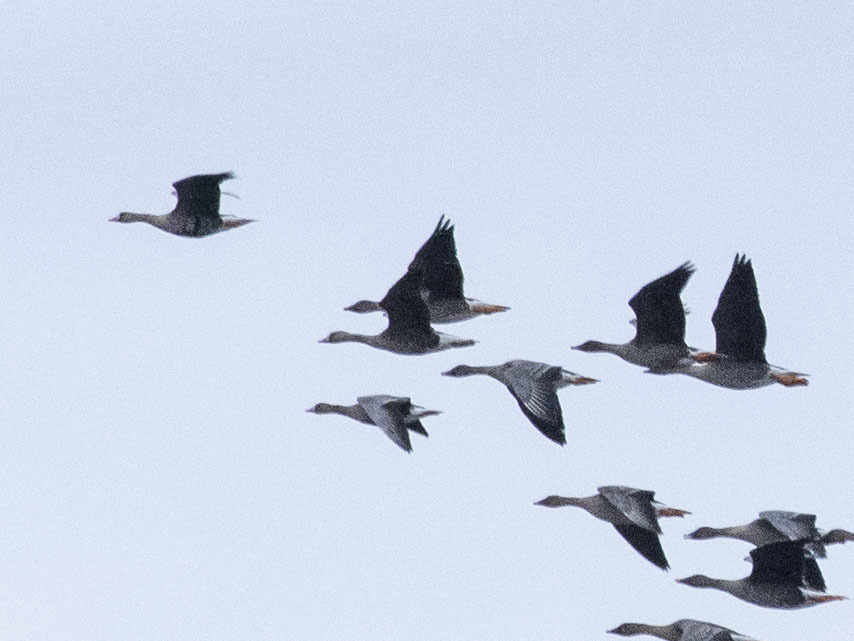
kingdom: Animalia
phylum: Chordata
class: Aves
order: Anseriformes
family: Anatidae
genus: Anser
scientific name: Anser albifrons
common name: Greater white-fronted goose
